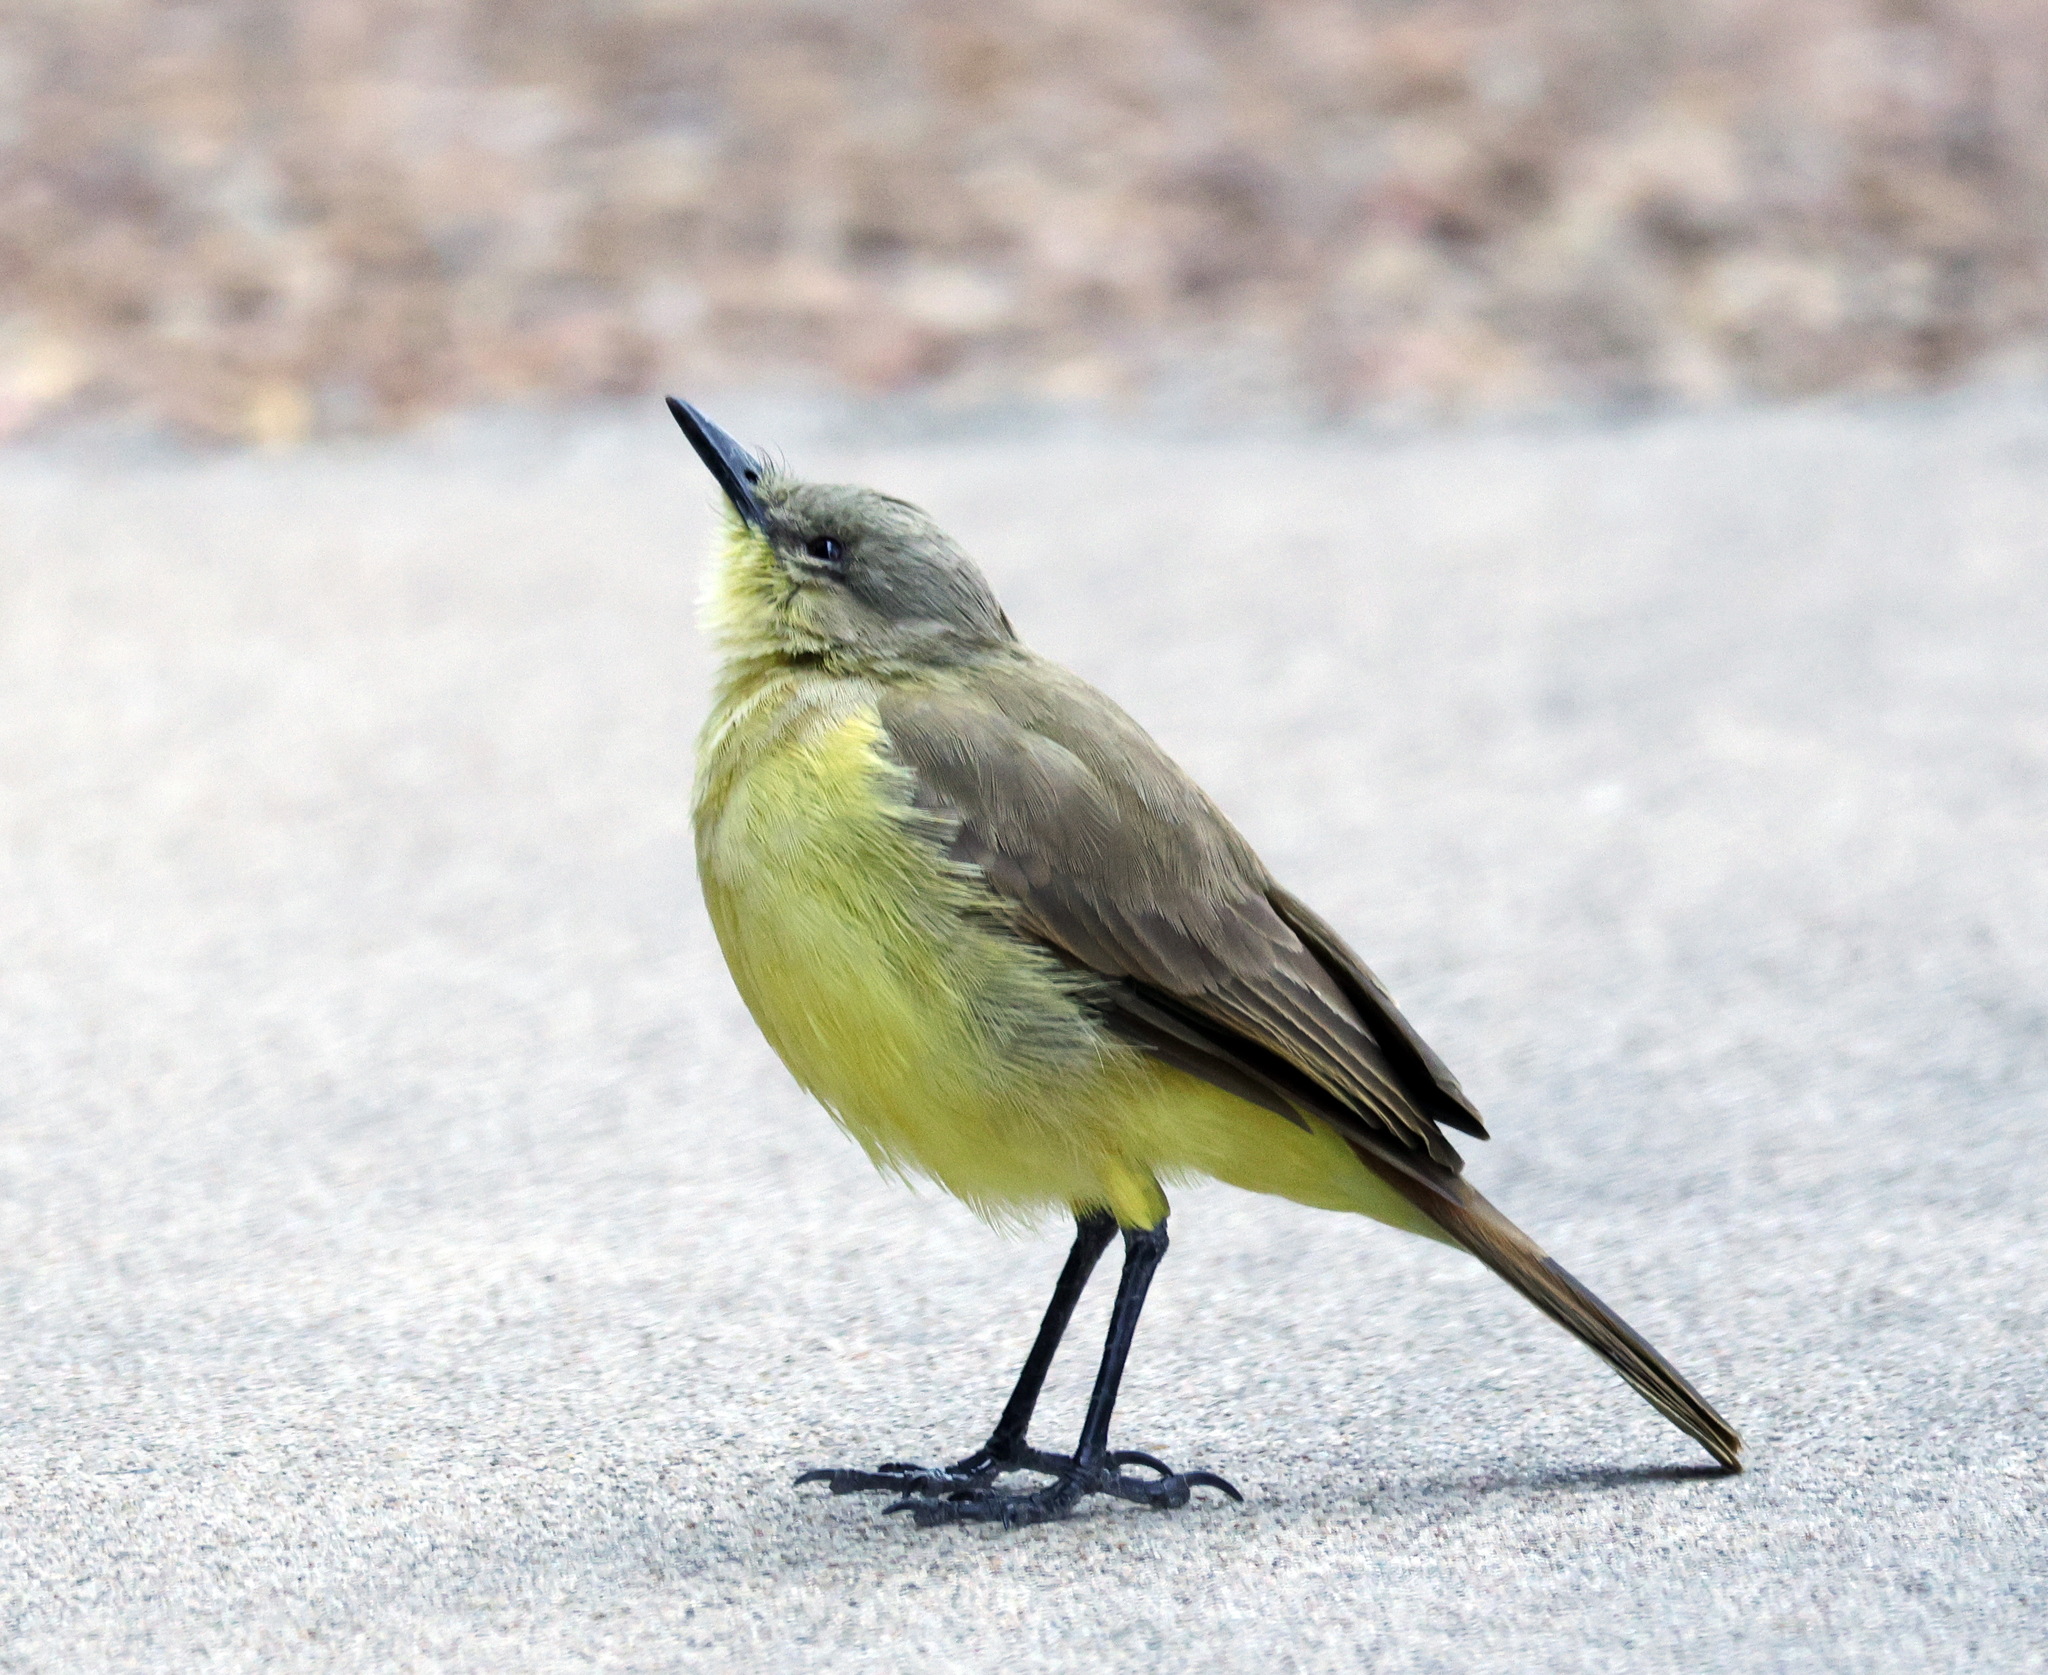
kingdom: Animalia
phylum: Chordata
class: Aves
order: Passeriformes
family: Tyrannidae
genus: Machetornis
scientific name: Machetornis rixosa
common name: Cattle tyrant
